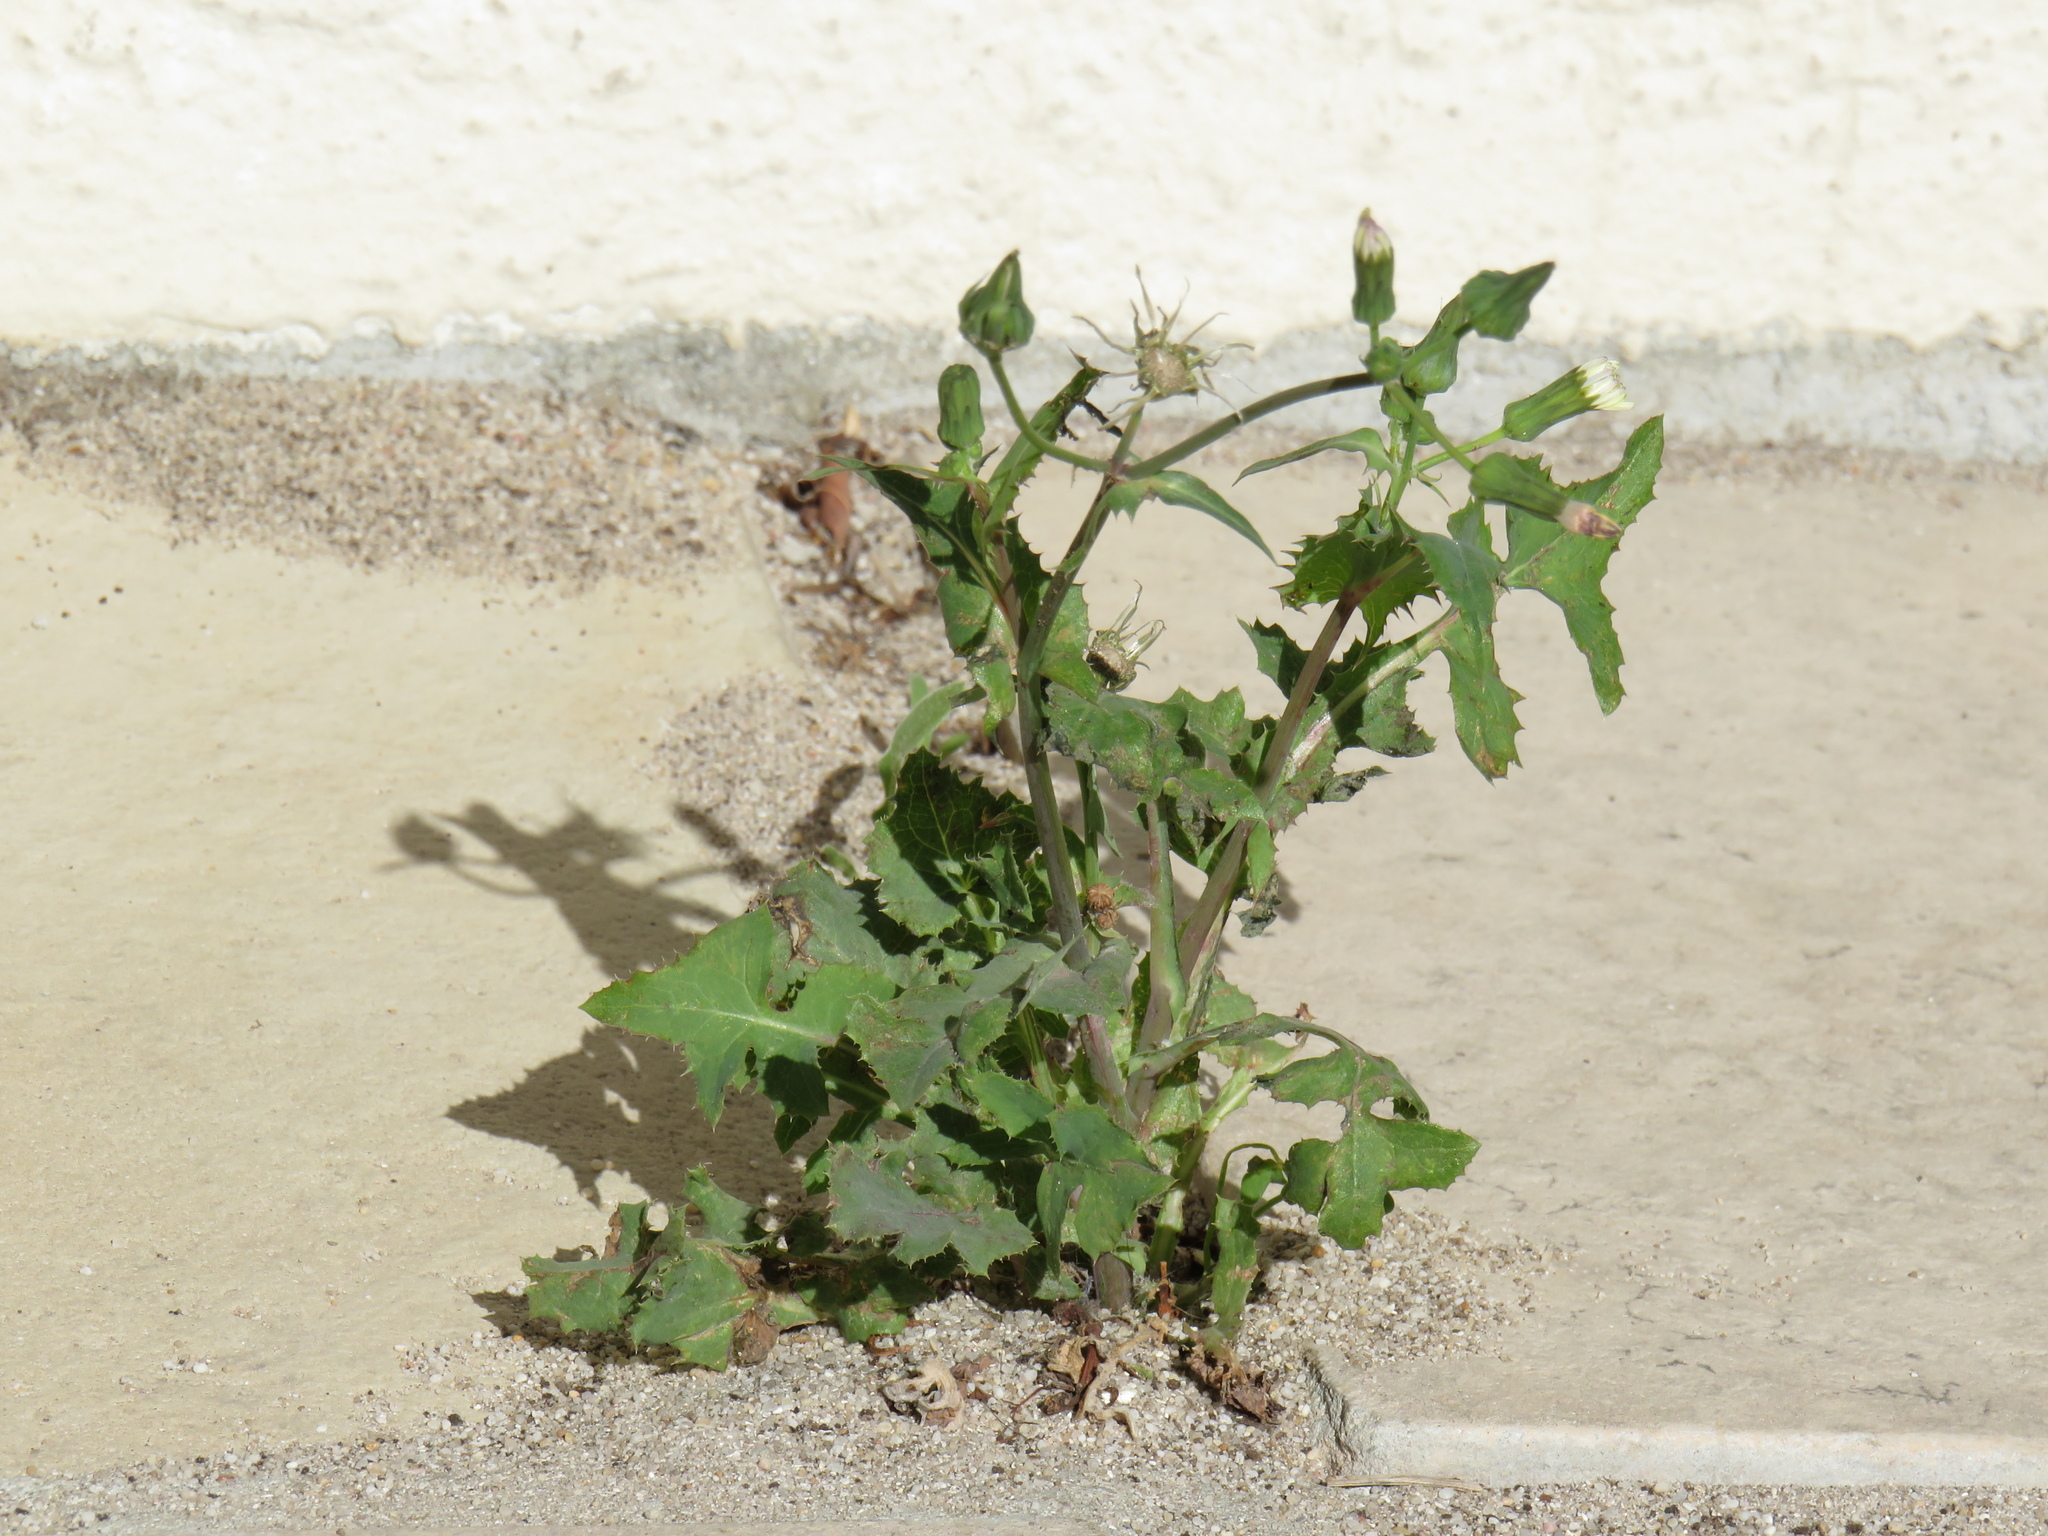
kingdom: Plantae
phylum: Tracheophyta
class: Magnoliopsida
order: Asterales
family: Asteraceae
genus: Sonchus
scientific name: Sonchus oleraceus
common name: Common sowthistle
